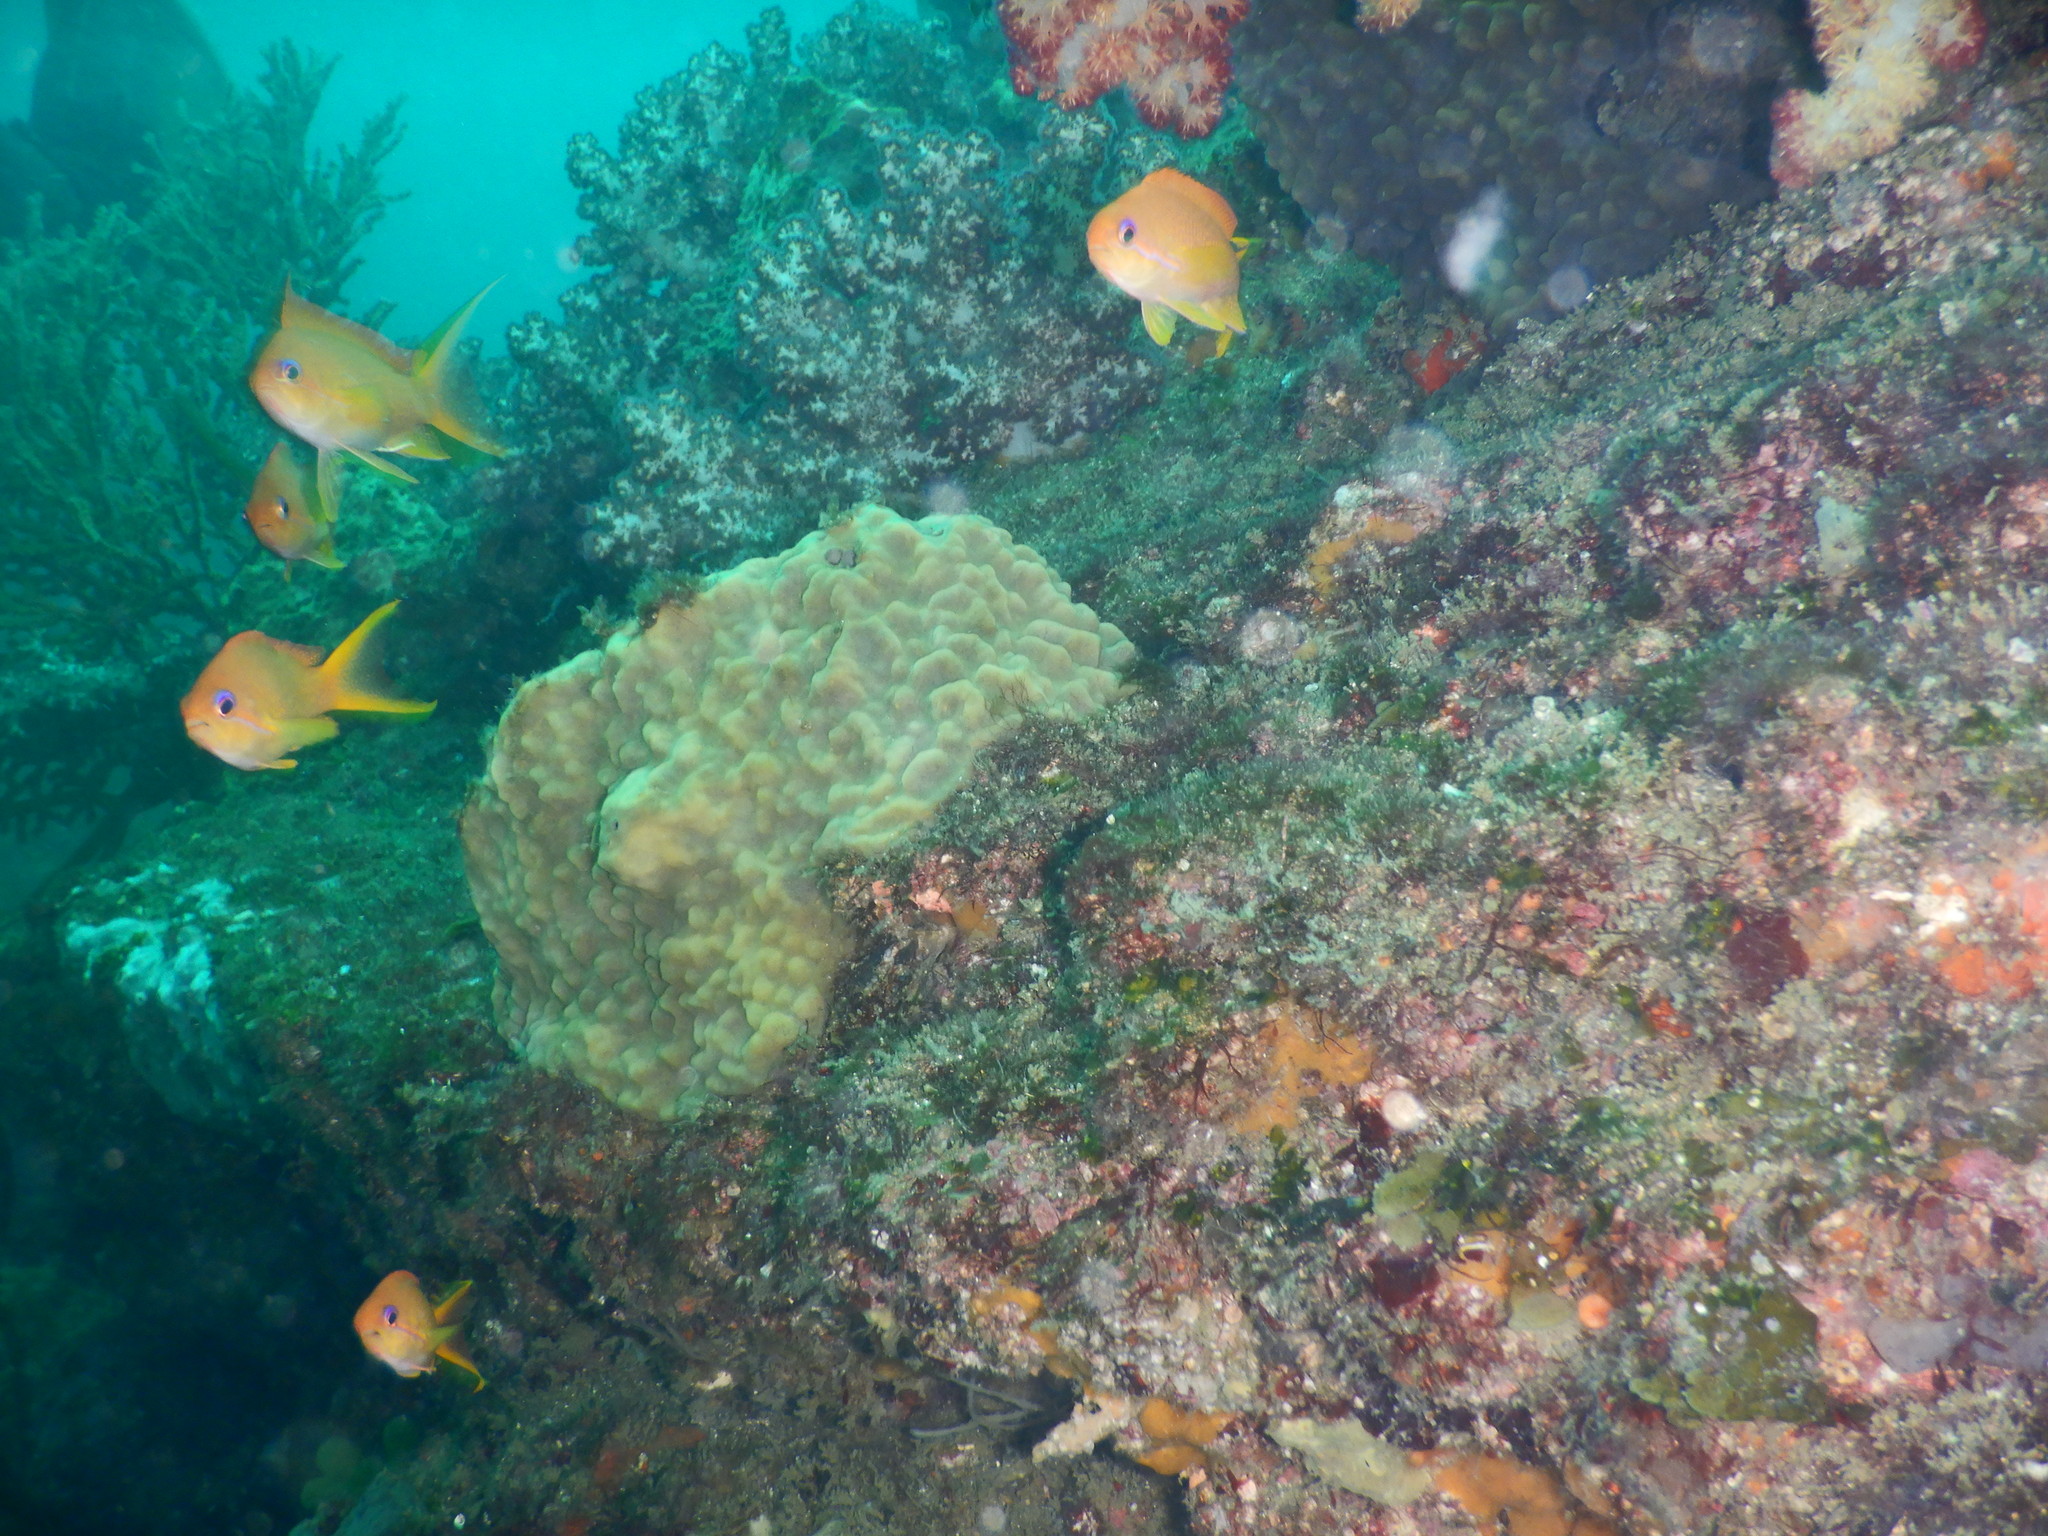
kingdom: Animalia
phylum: Chordata
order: Perciformes
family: Serranidae
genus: Pseudanthias
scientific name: Pseudanthias squamipinnis
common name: Scalefin anthias
